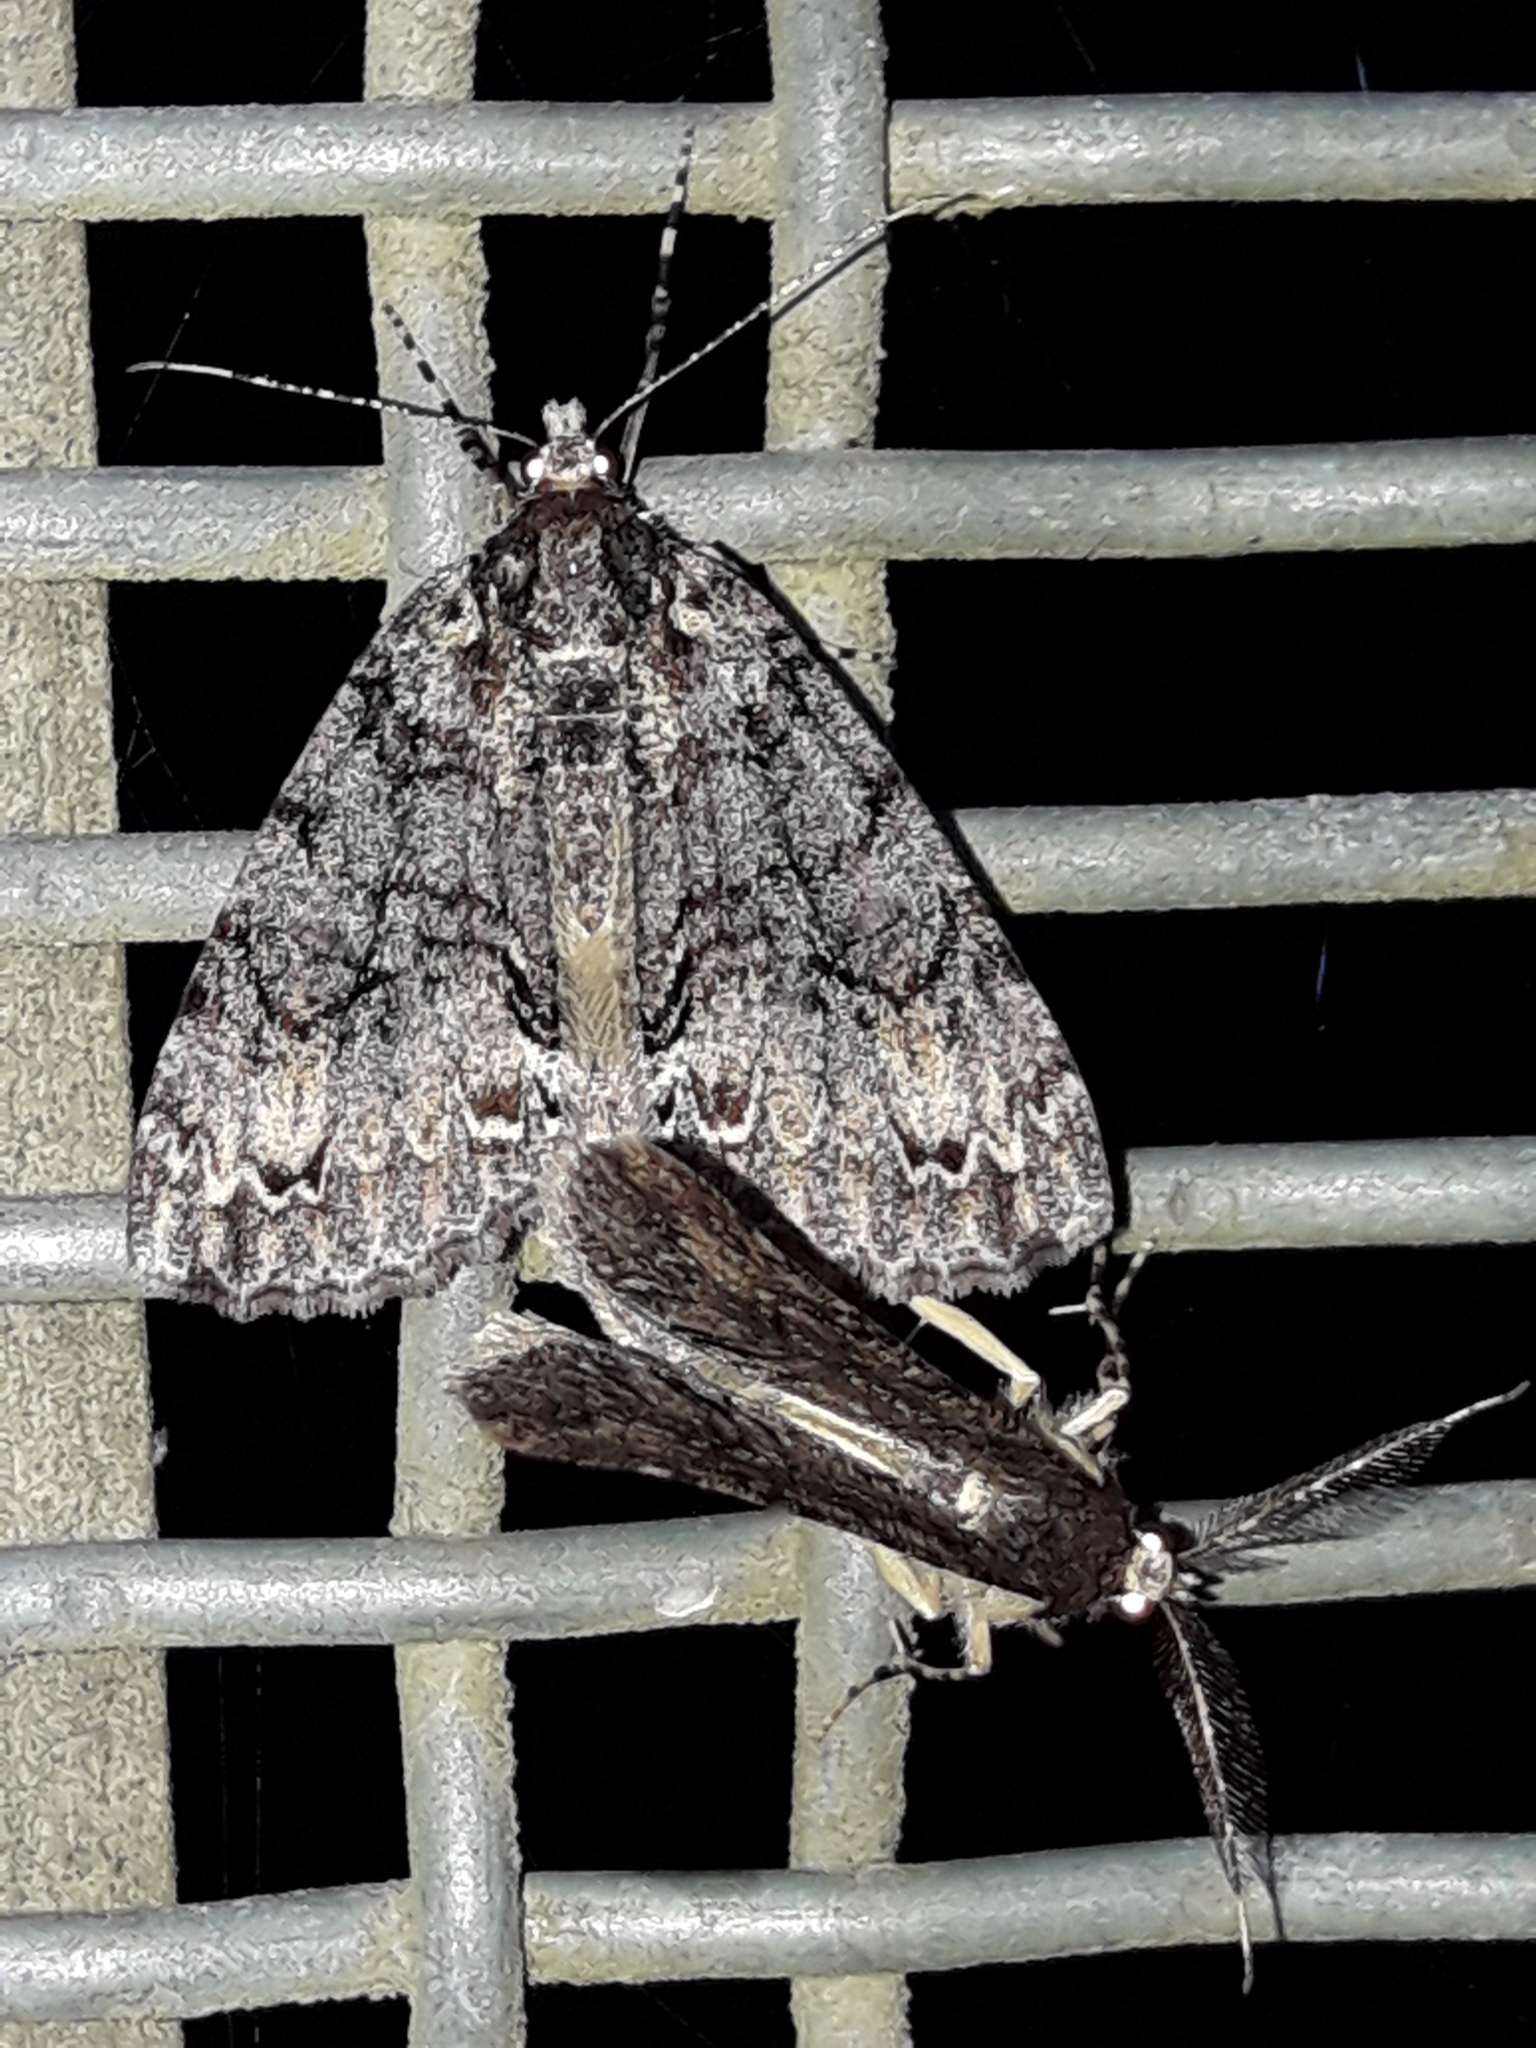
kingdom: Animalia
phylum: Arthropoda
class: Insecta
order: Lepidoptera
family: Geometridae
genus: Pseudocoremia
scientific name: Pseudocoremia suavis
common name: Common forest looper
